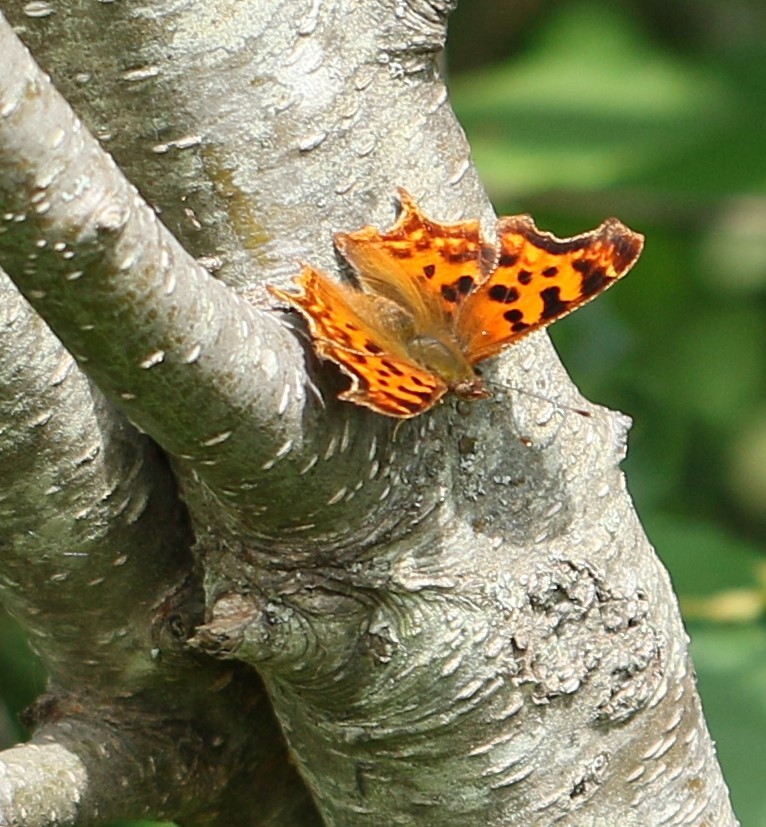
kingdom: Animalia
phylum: Arthropoda
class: Insecta
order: Lepidoptera
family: Nymphalidae
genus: Polygonia
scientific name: Polygonia satyrus
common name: Satyr angle wing
